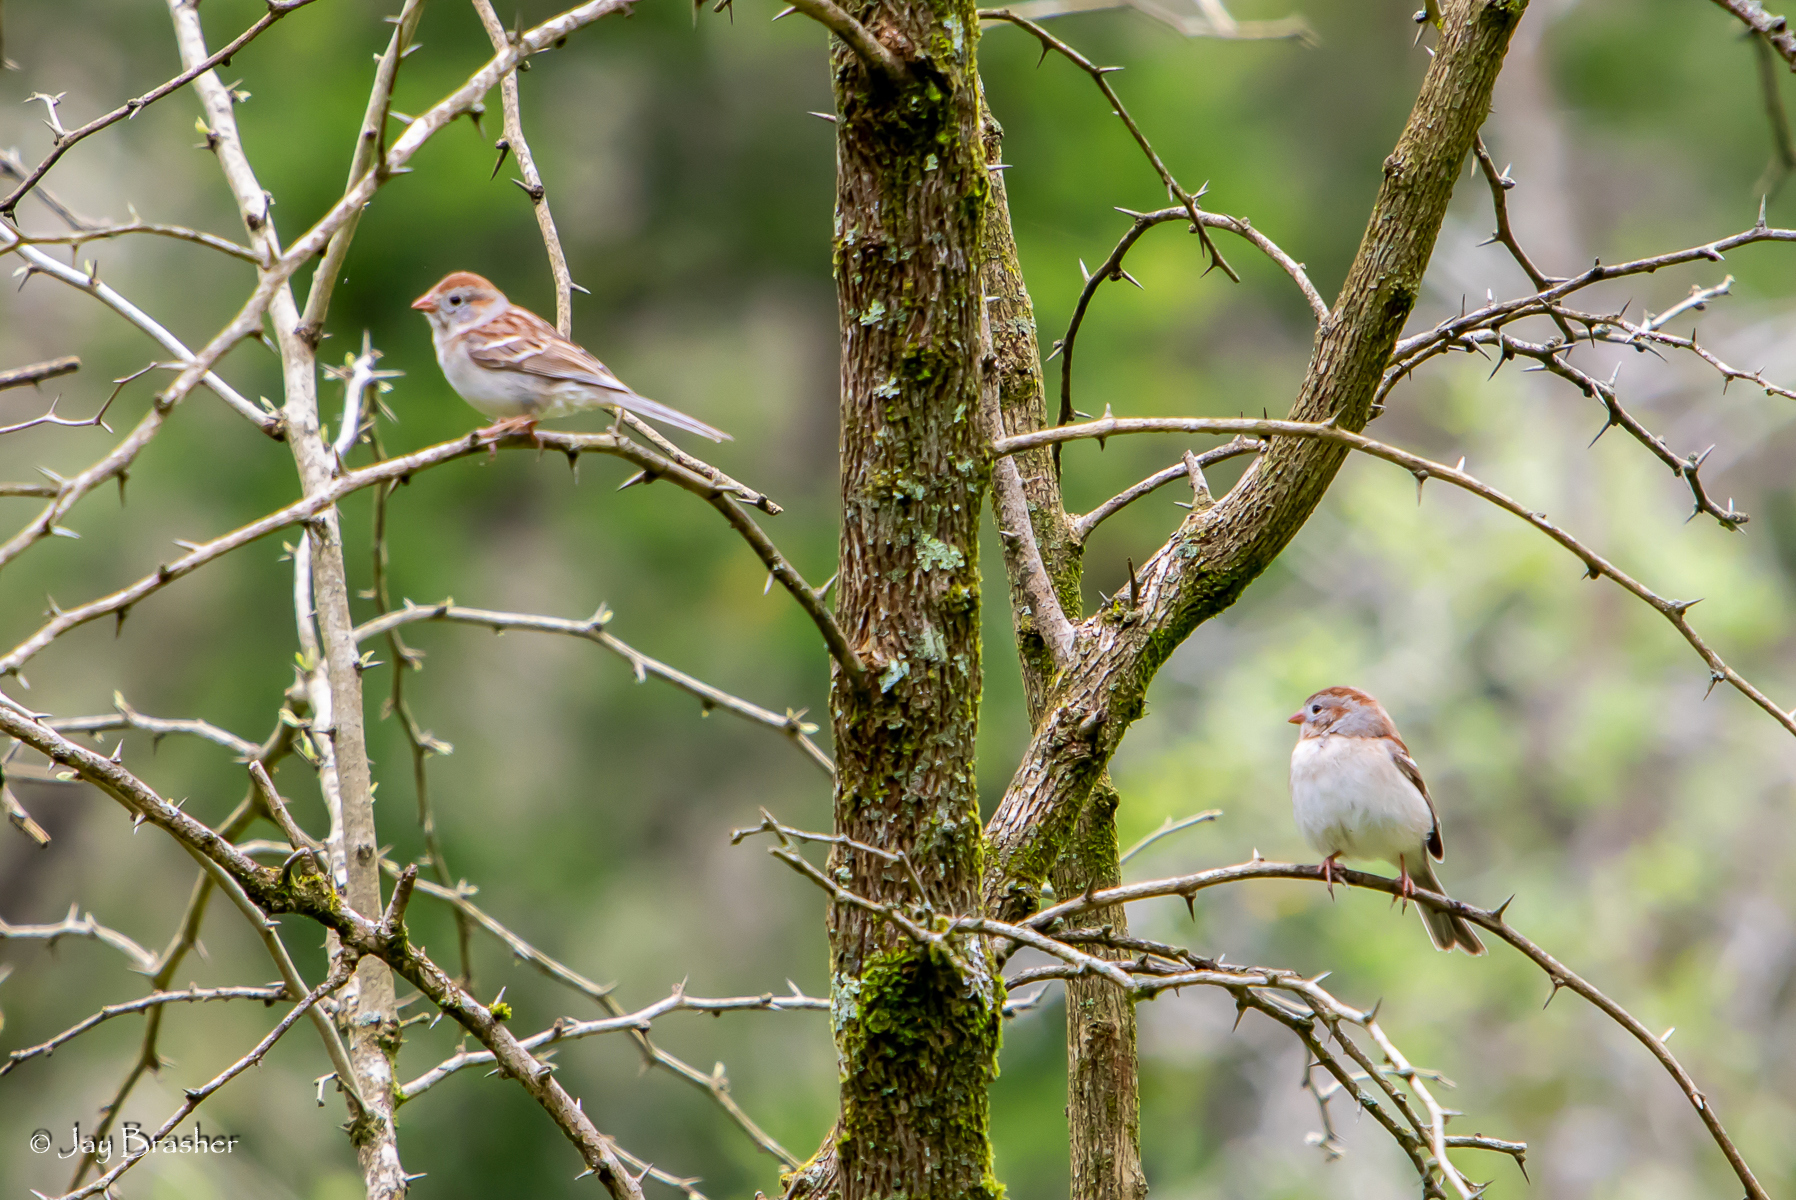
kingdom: Animalia
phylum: Chordata
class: Aves
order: Passeriformes
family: Passerellidae
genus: Spizella
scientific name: Spizella pusilla
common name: Field sparrow
